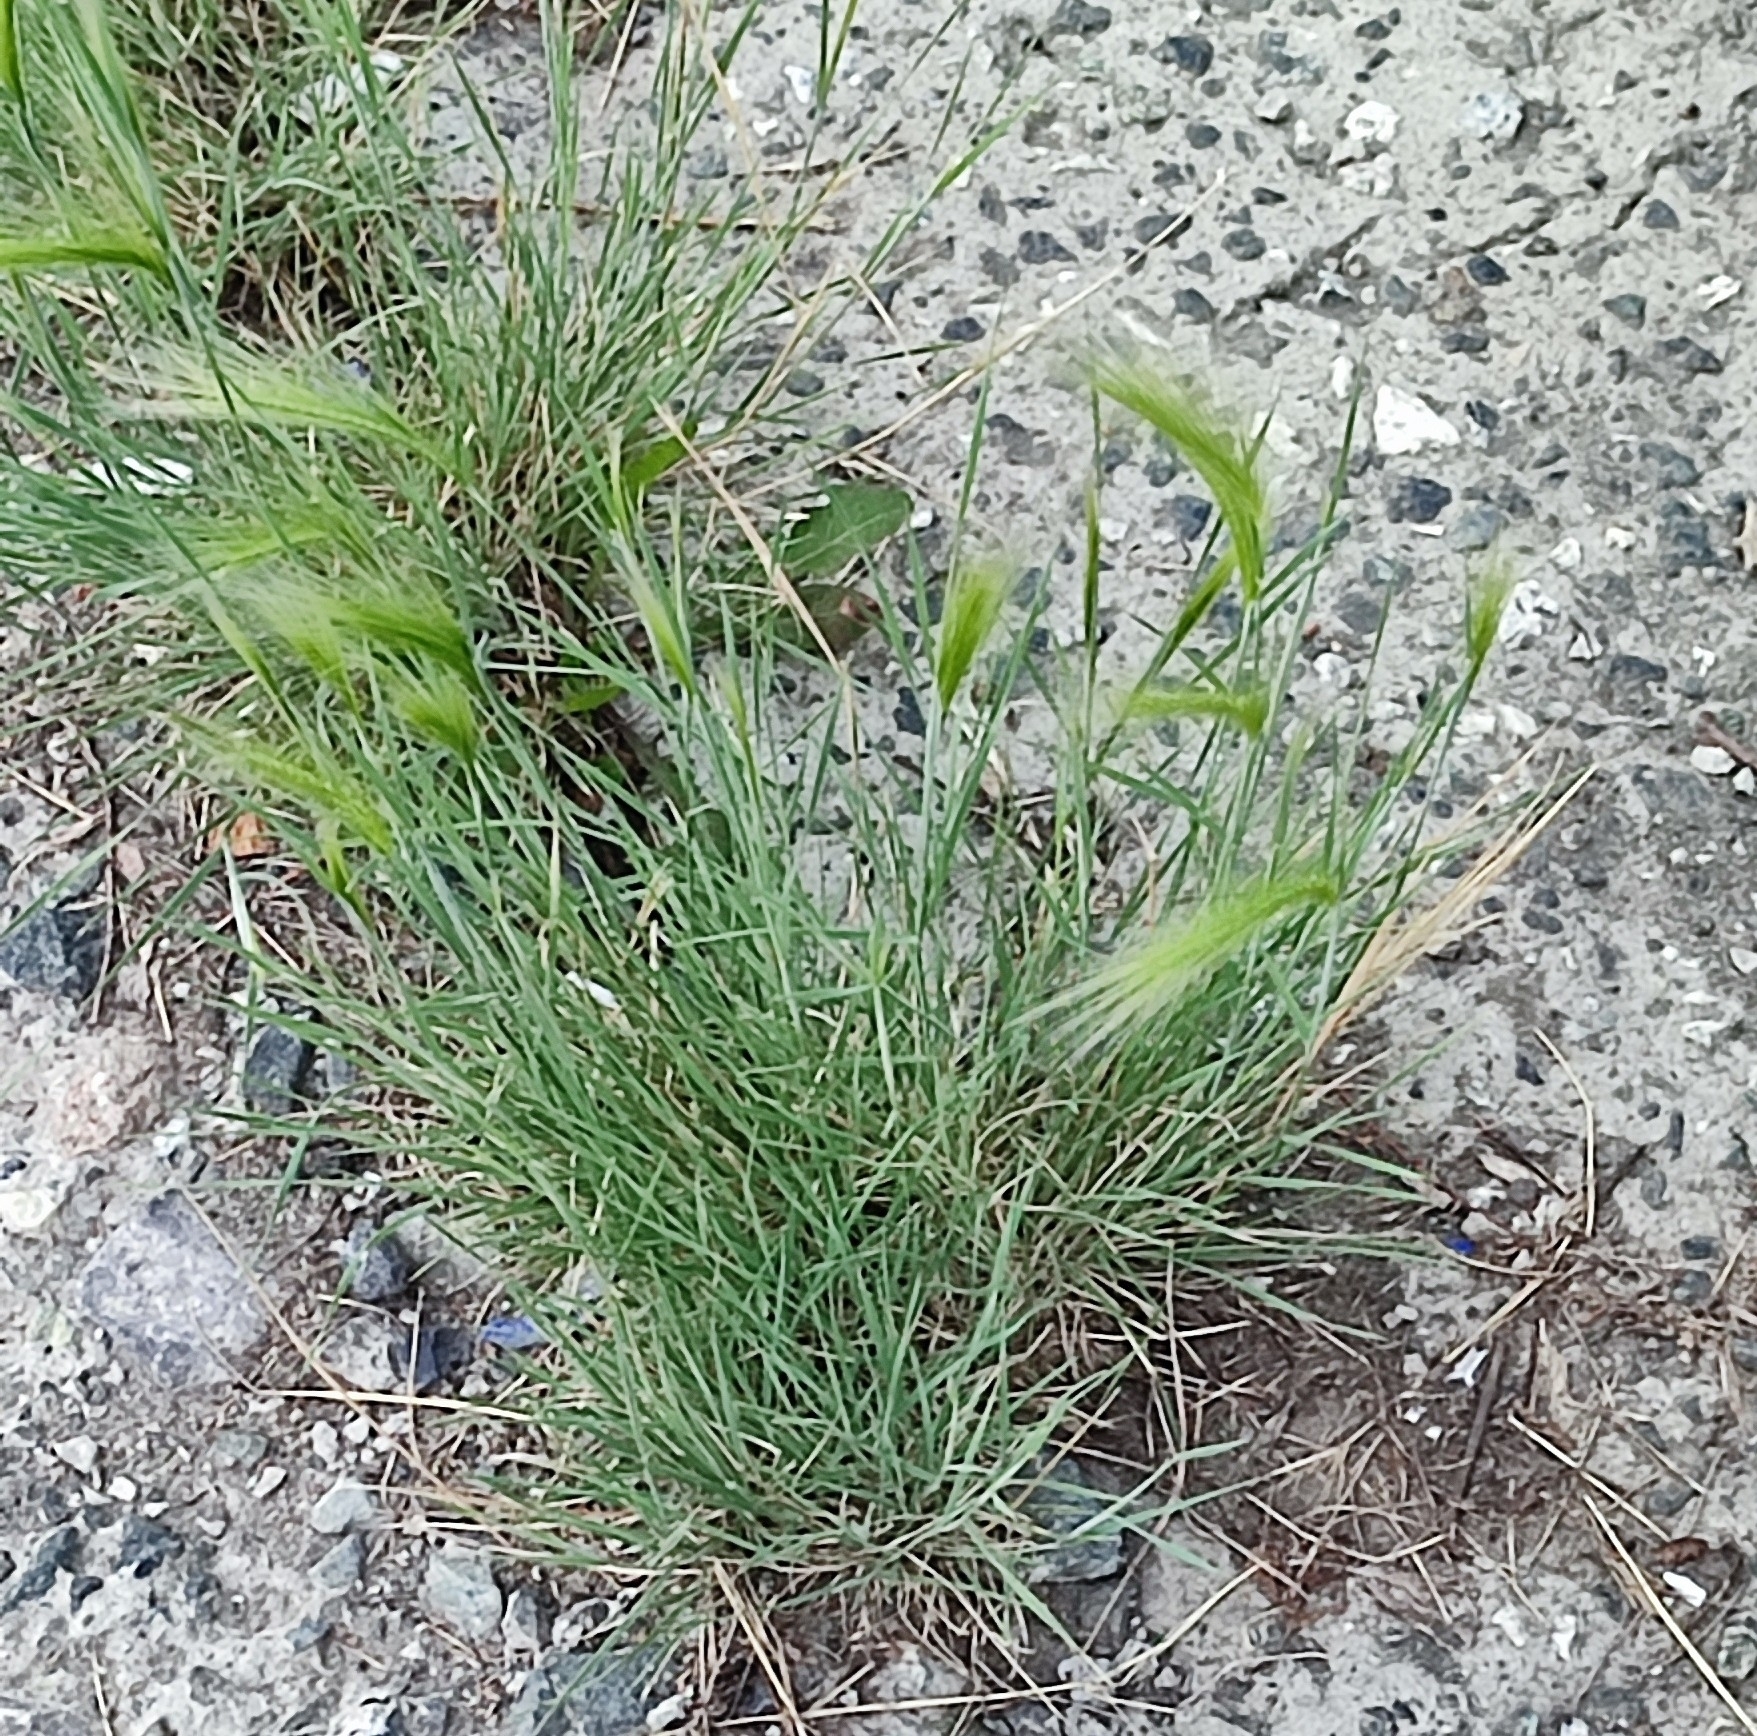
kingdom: Plantae
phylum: Tracheophyta
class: Liliopsida
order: Poales
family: Poaceae
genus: Hordeum
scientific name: Hordeum jubatum
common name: Foxtail barley
